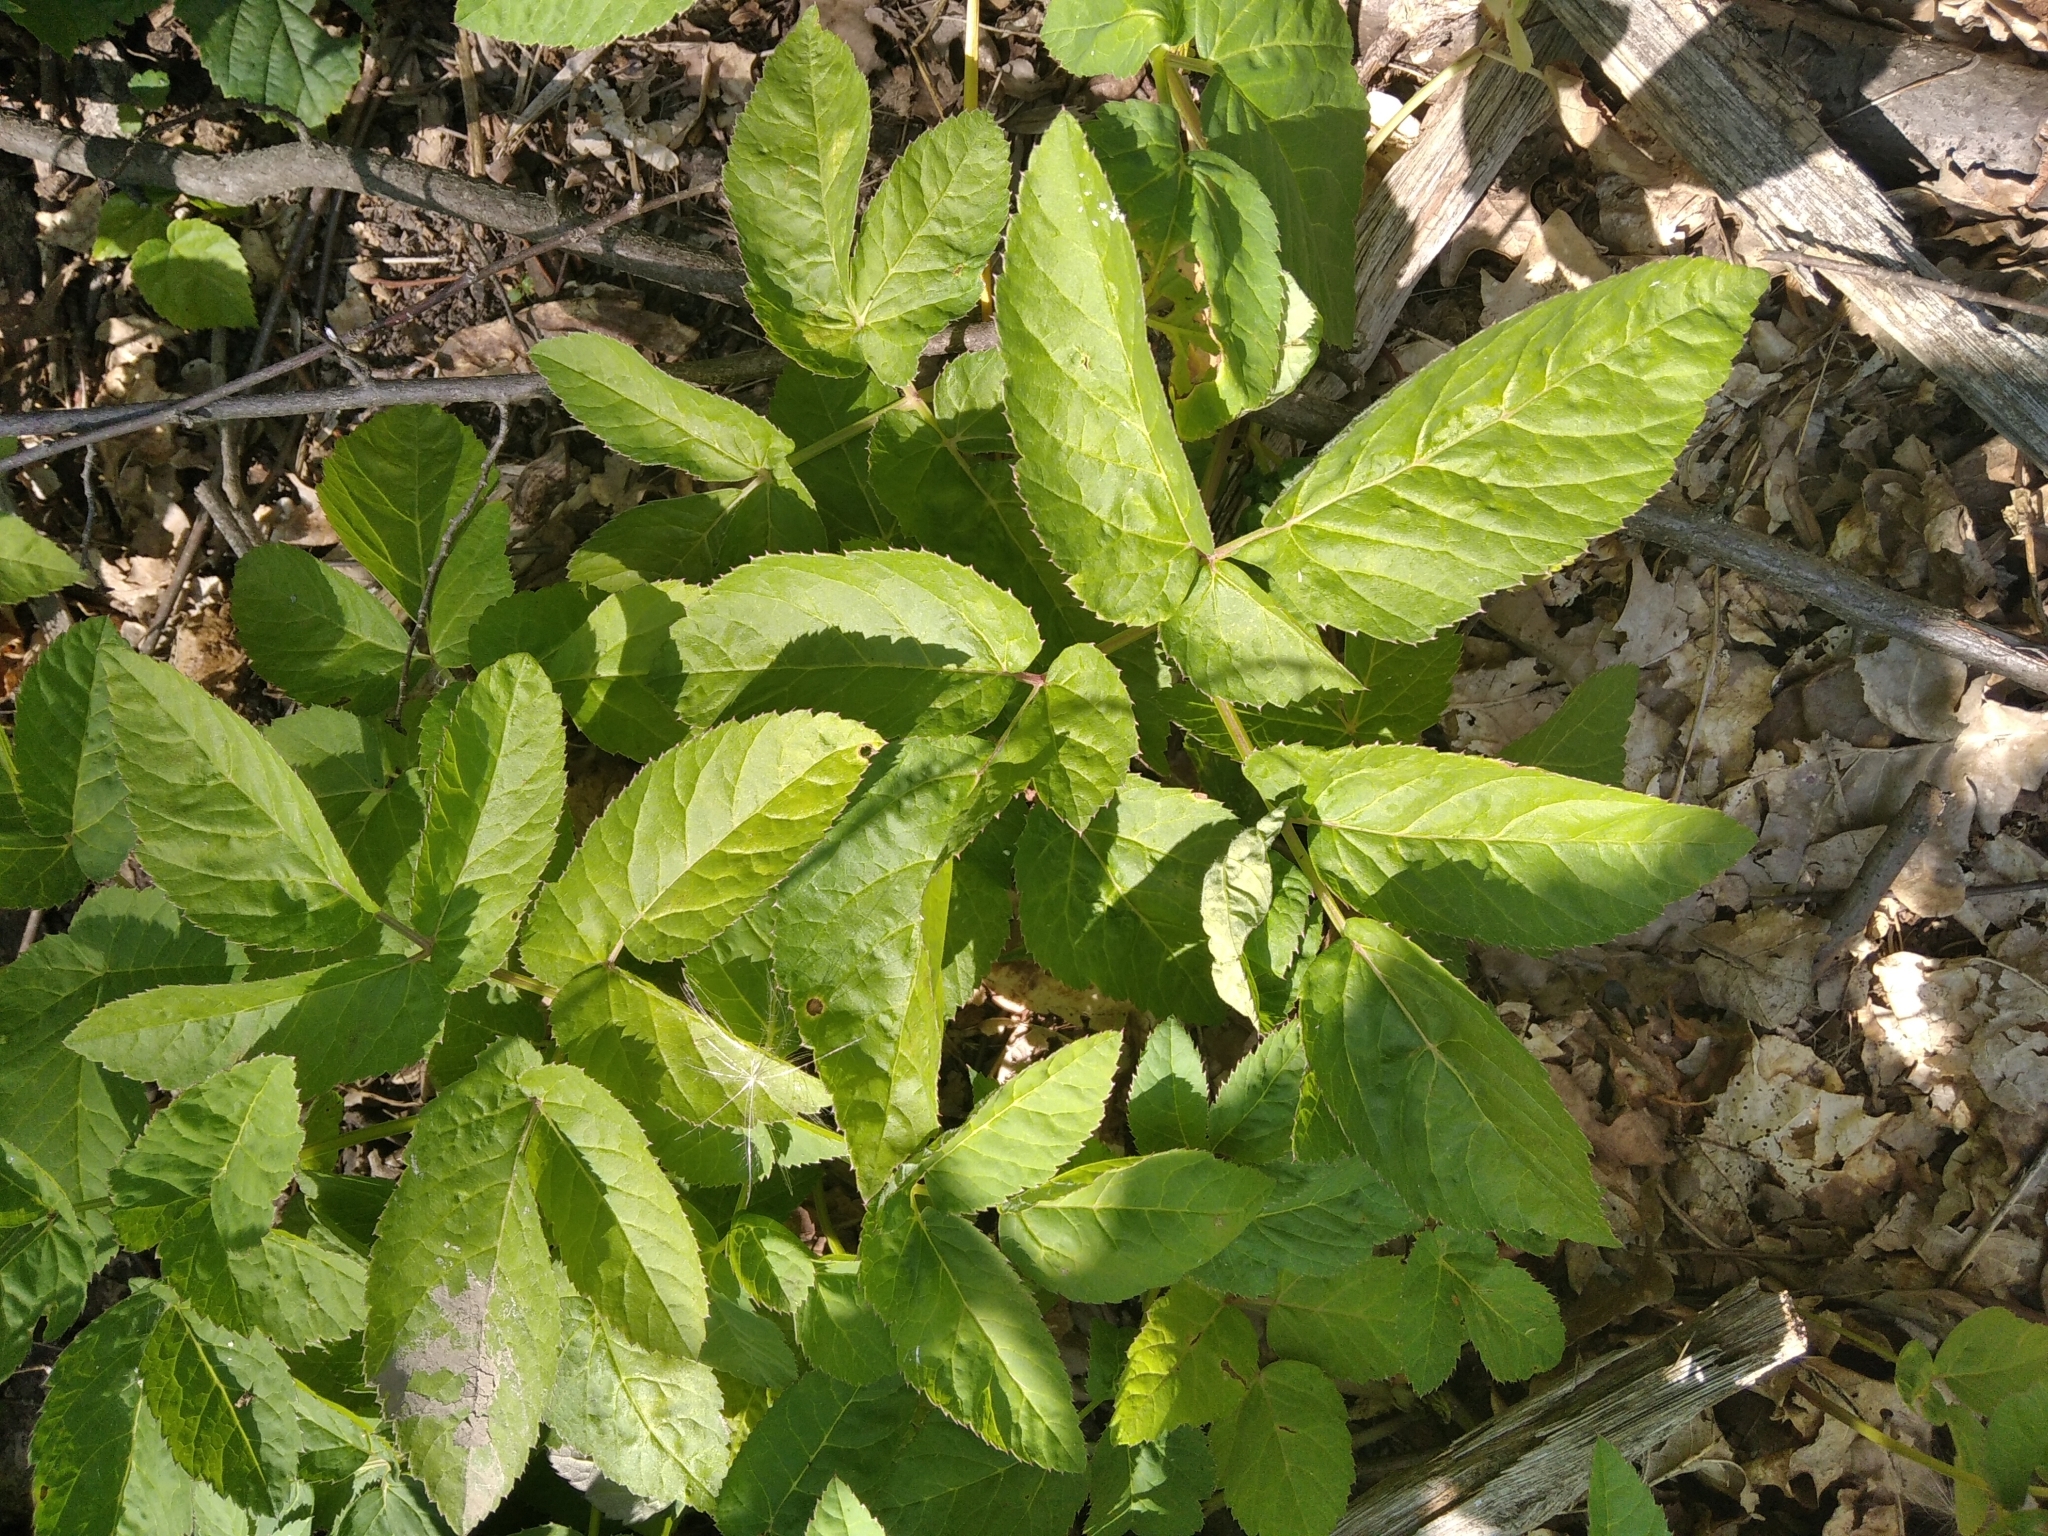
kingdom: Plantae
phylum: Tracheophyta
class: Magnoliopsida
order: Apiales
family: Apiaceae
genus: Aegopodium
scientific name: Aegopodium podagraria
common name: Ground-elder
